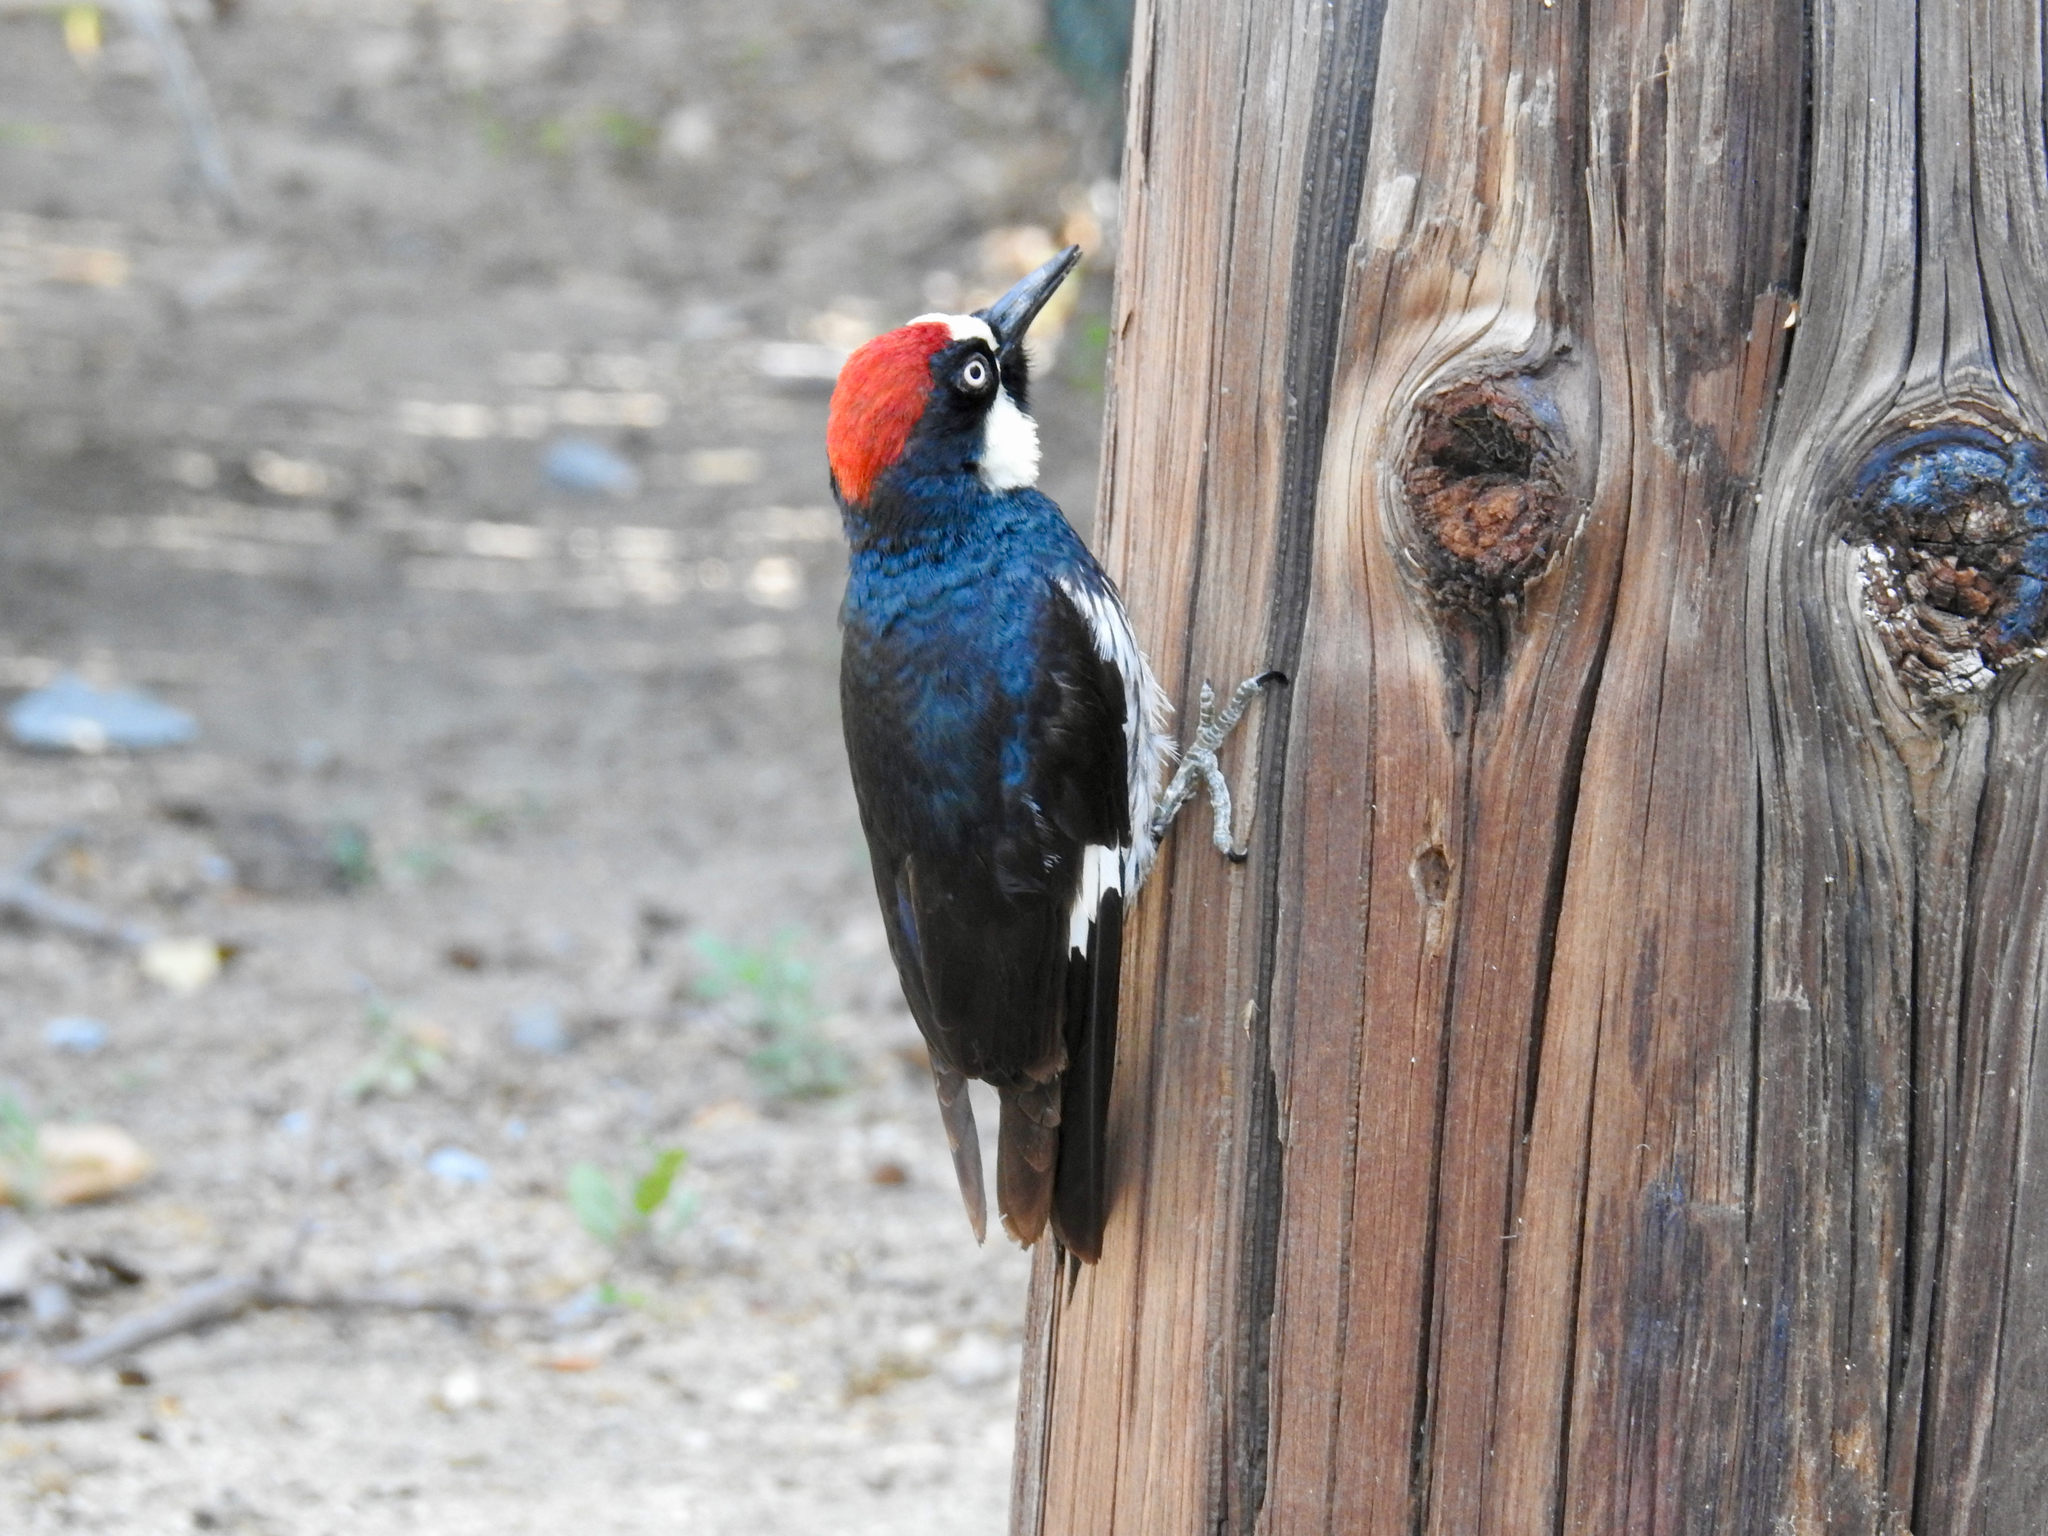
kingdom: Animalia
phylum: Chordata
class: Aves
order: Piciformes
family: Picidae
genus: Melanerpes
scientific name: Melanerpes formicivorus
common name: Acorn woodpecker
